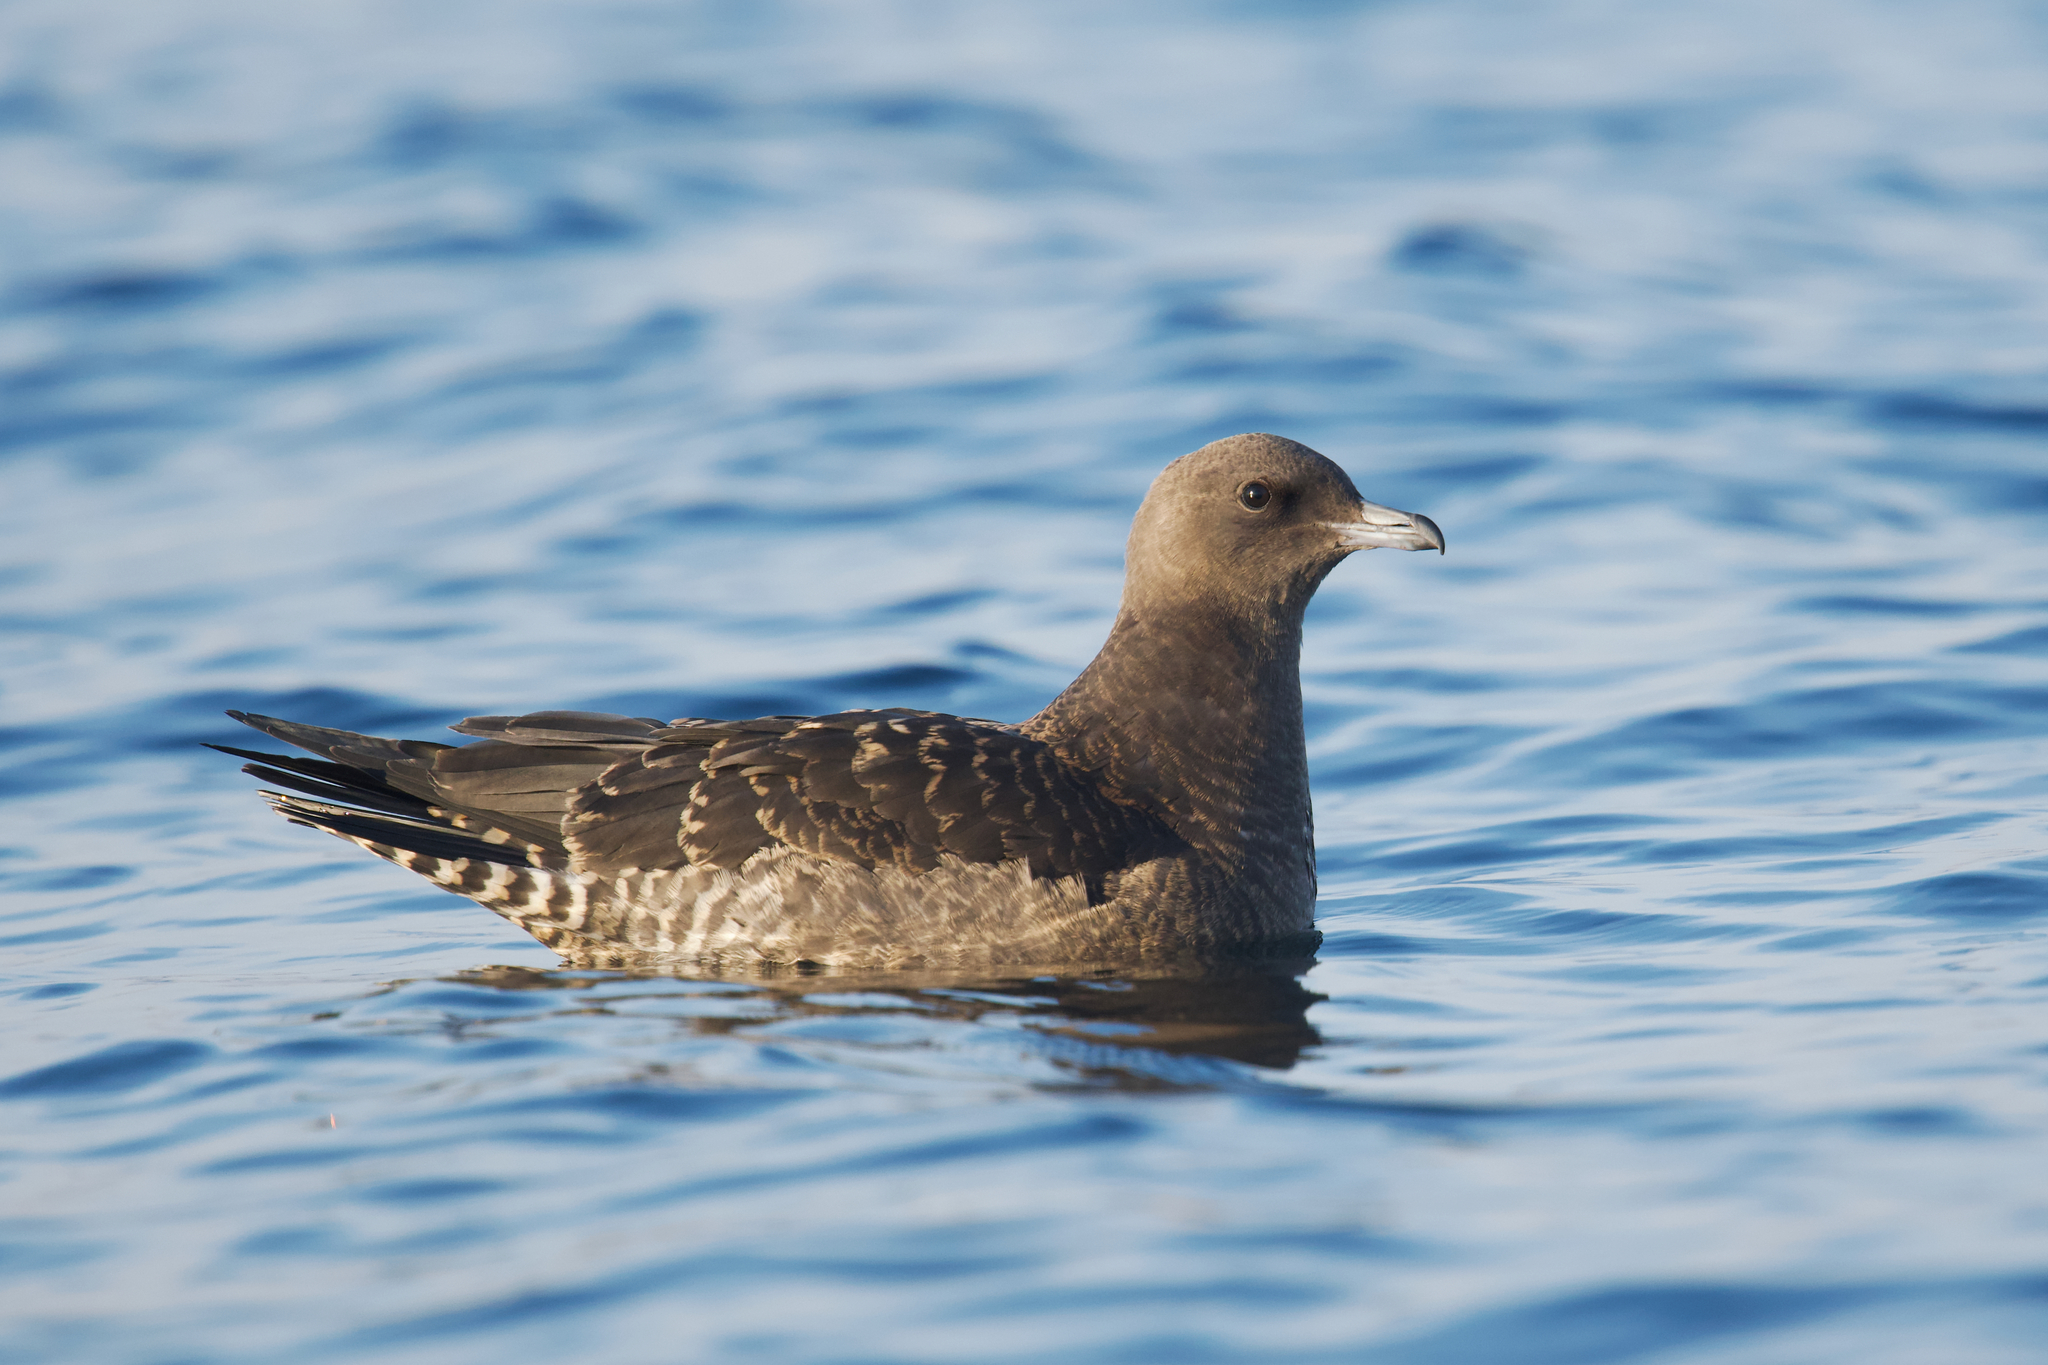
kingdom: Animalia
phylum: Chordata
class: Aves
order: Charadriiformes
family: Stercorariidae
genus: Stercorarius
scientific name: Stercorarius pomarinus
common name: Pomarine jaeger
